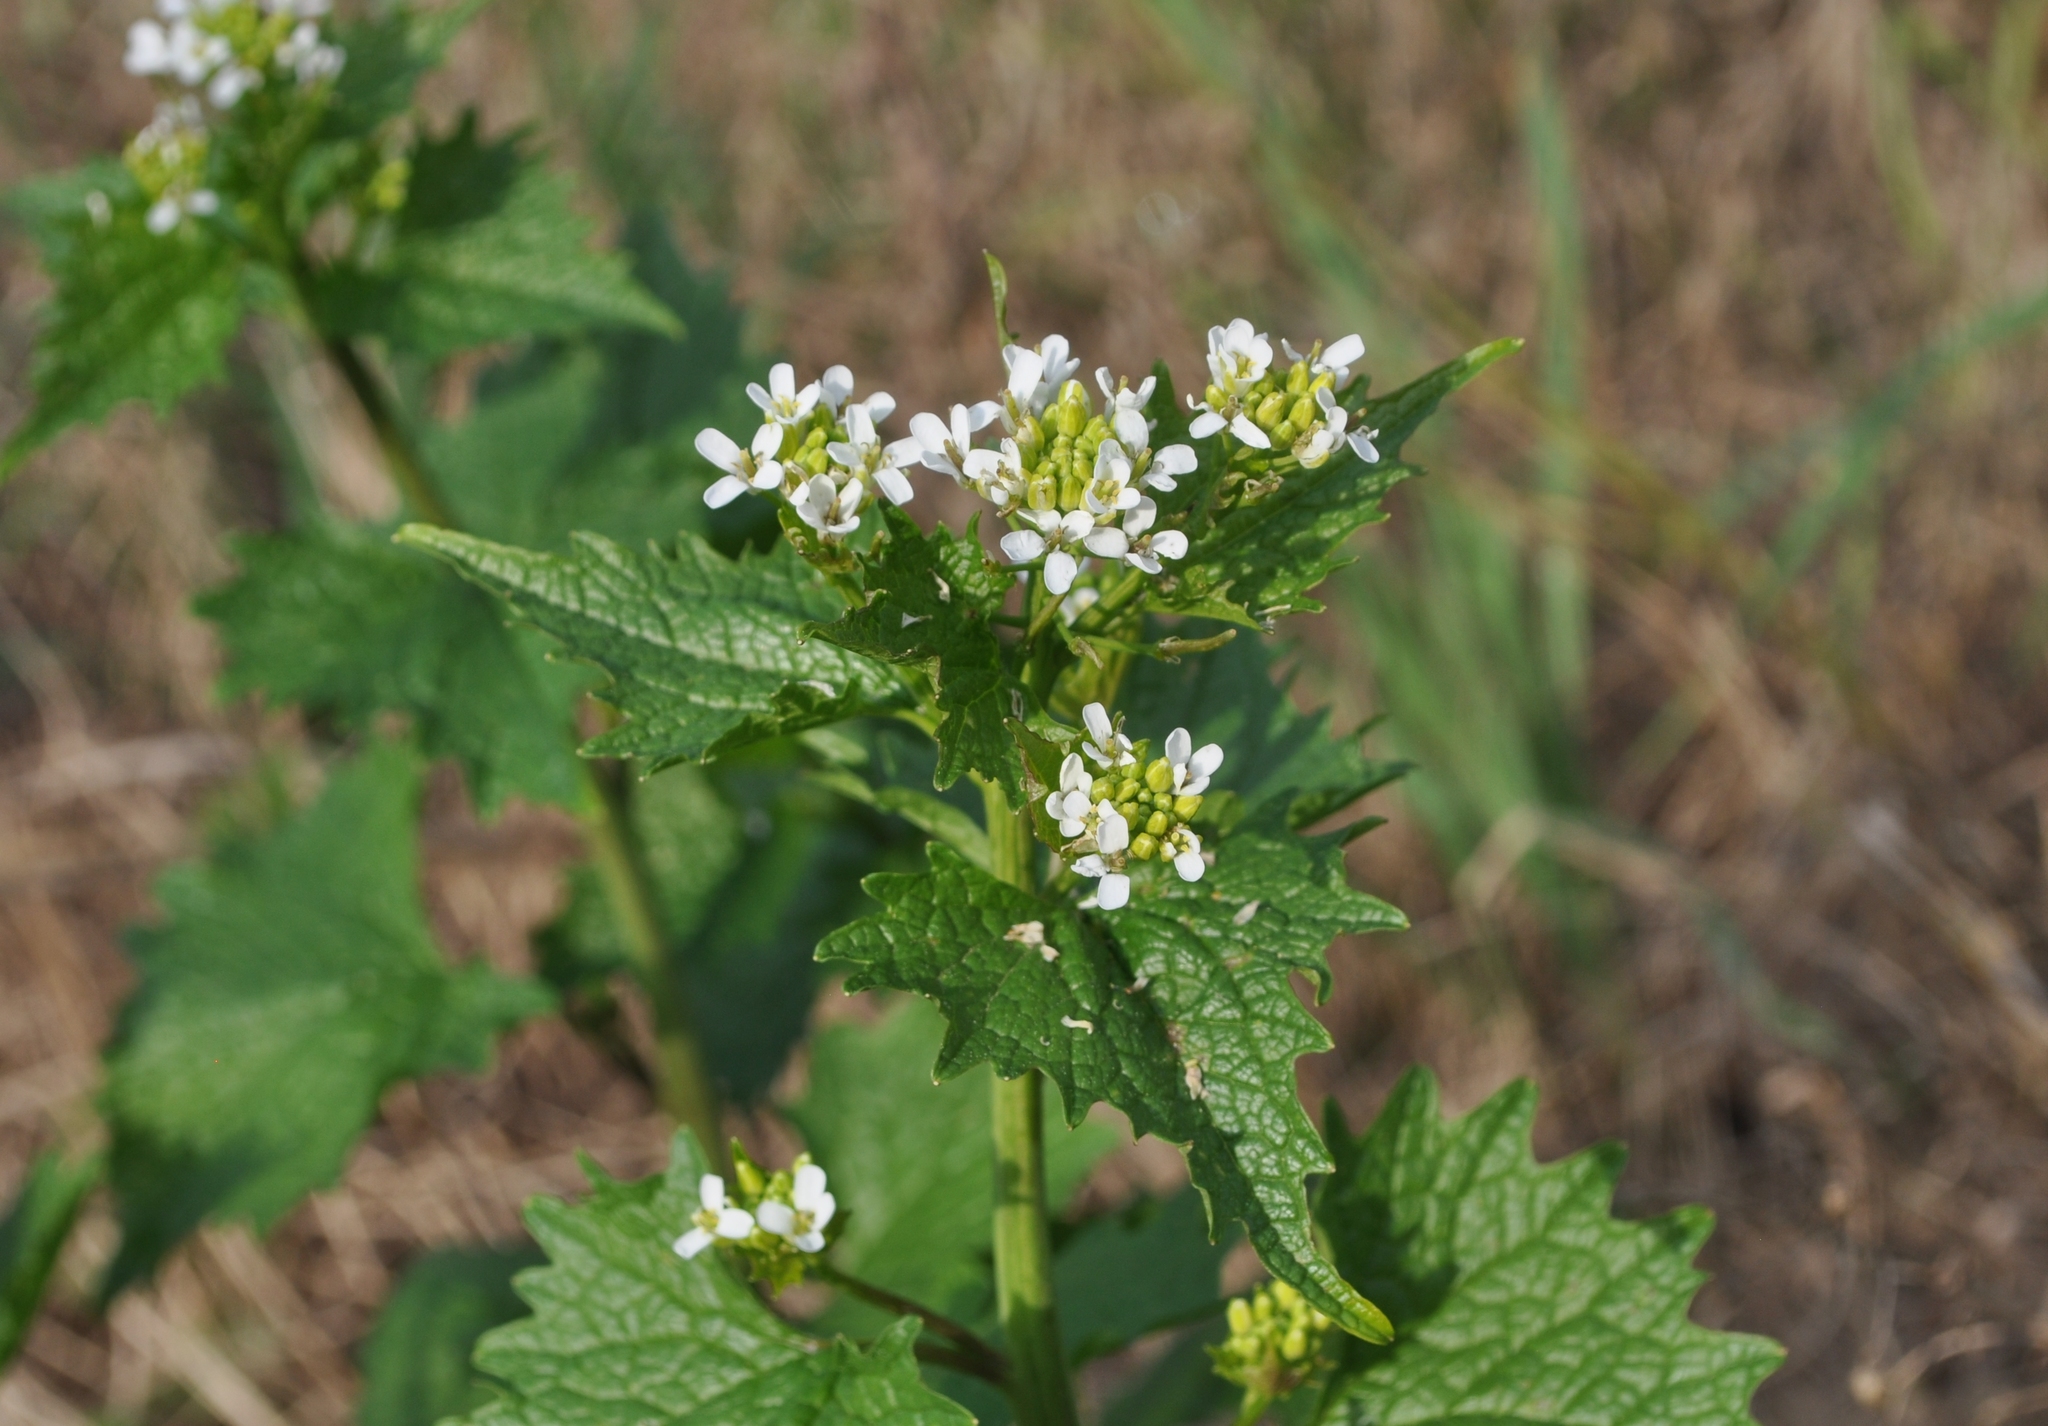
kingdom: Plantae
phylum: Tracheophyta
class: Magnoliopsida
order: Brassicales
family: Brassicaceae
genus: Alliaria
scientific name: Alliaria petiolata
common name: Garlic mustard
